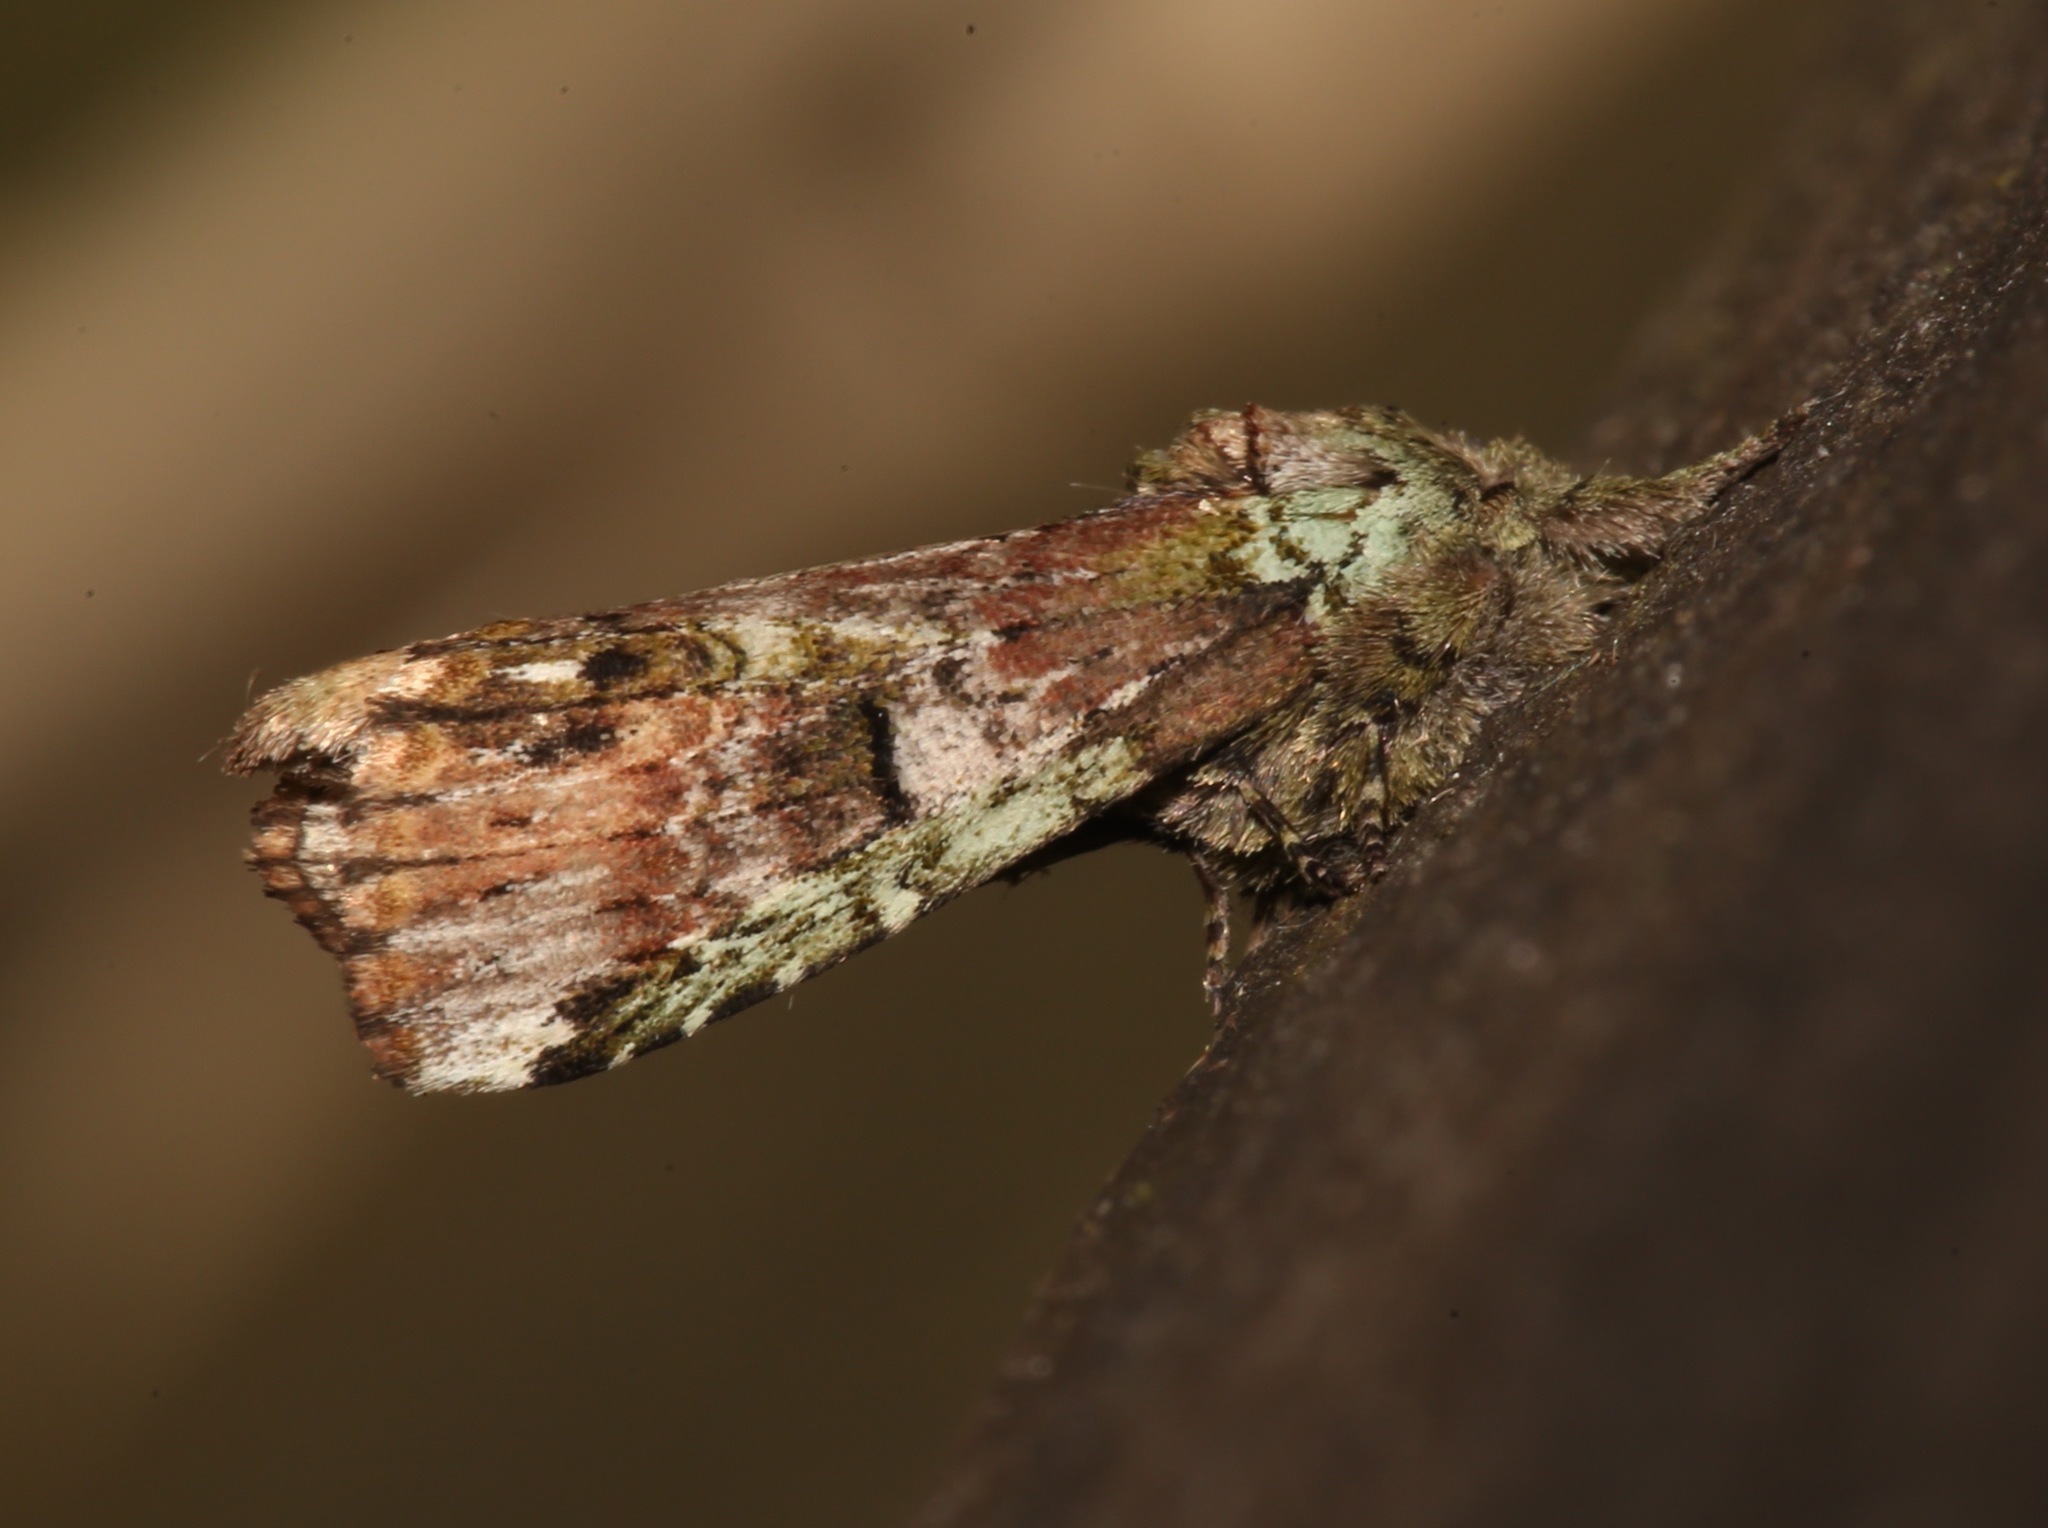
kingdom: Animalia
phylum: Arthropoda
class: Insecta
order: Lepidoptera
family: Notodontidae
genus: Schizura
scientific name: Schizura
